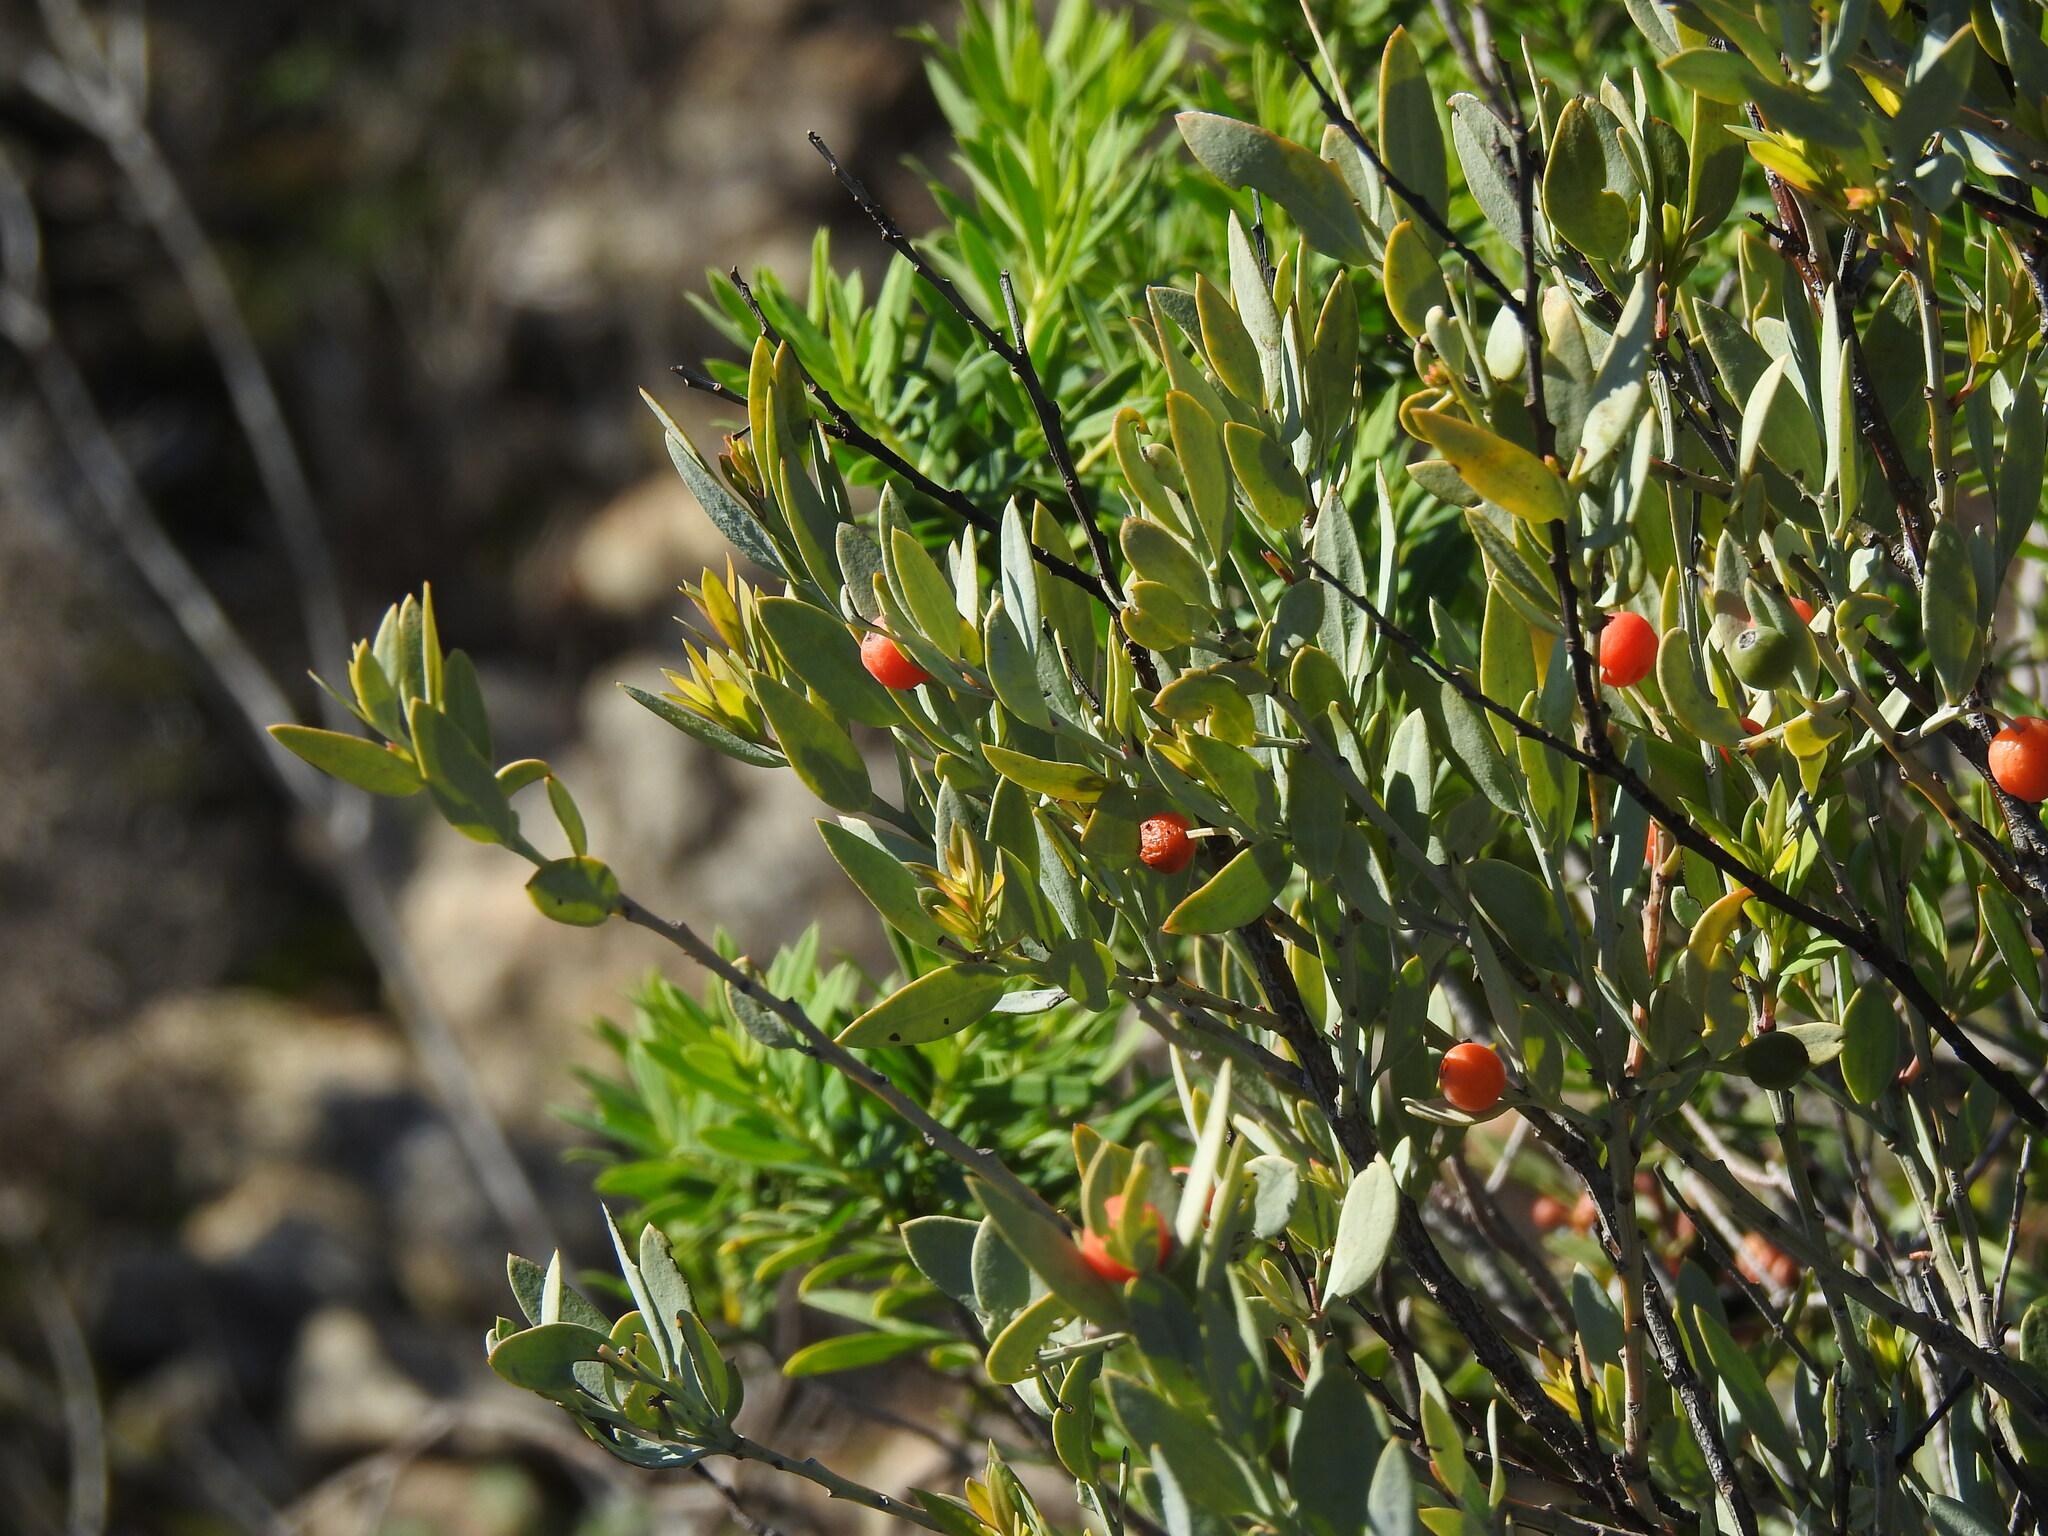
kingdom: Plantae
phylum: Tracheophyta
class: Magnoliopsida
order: Santalales
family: Santalaceae
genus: Osyris
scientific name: Osyris lanceolata
